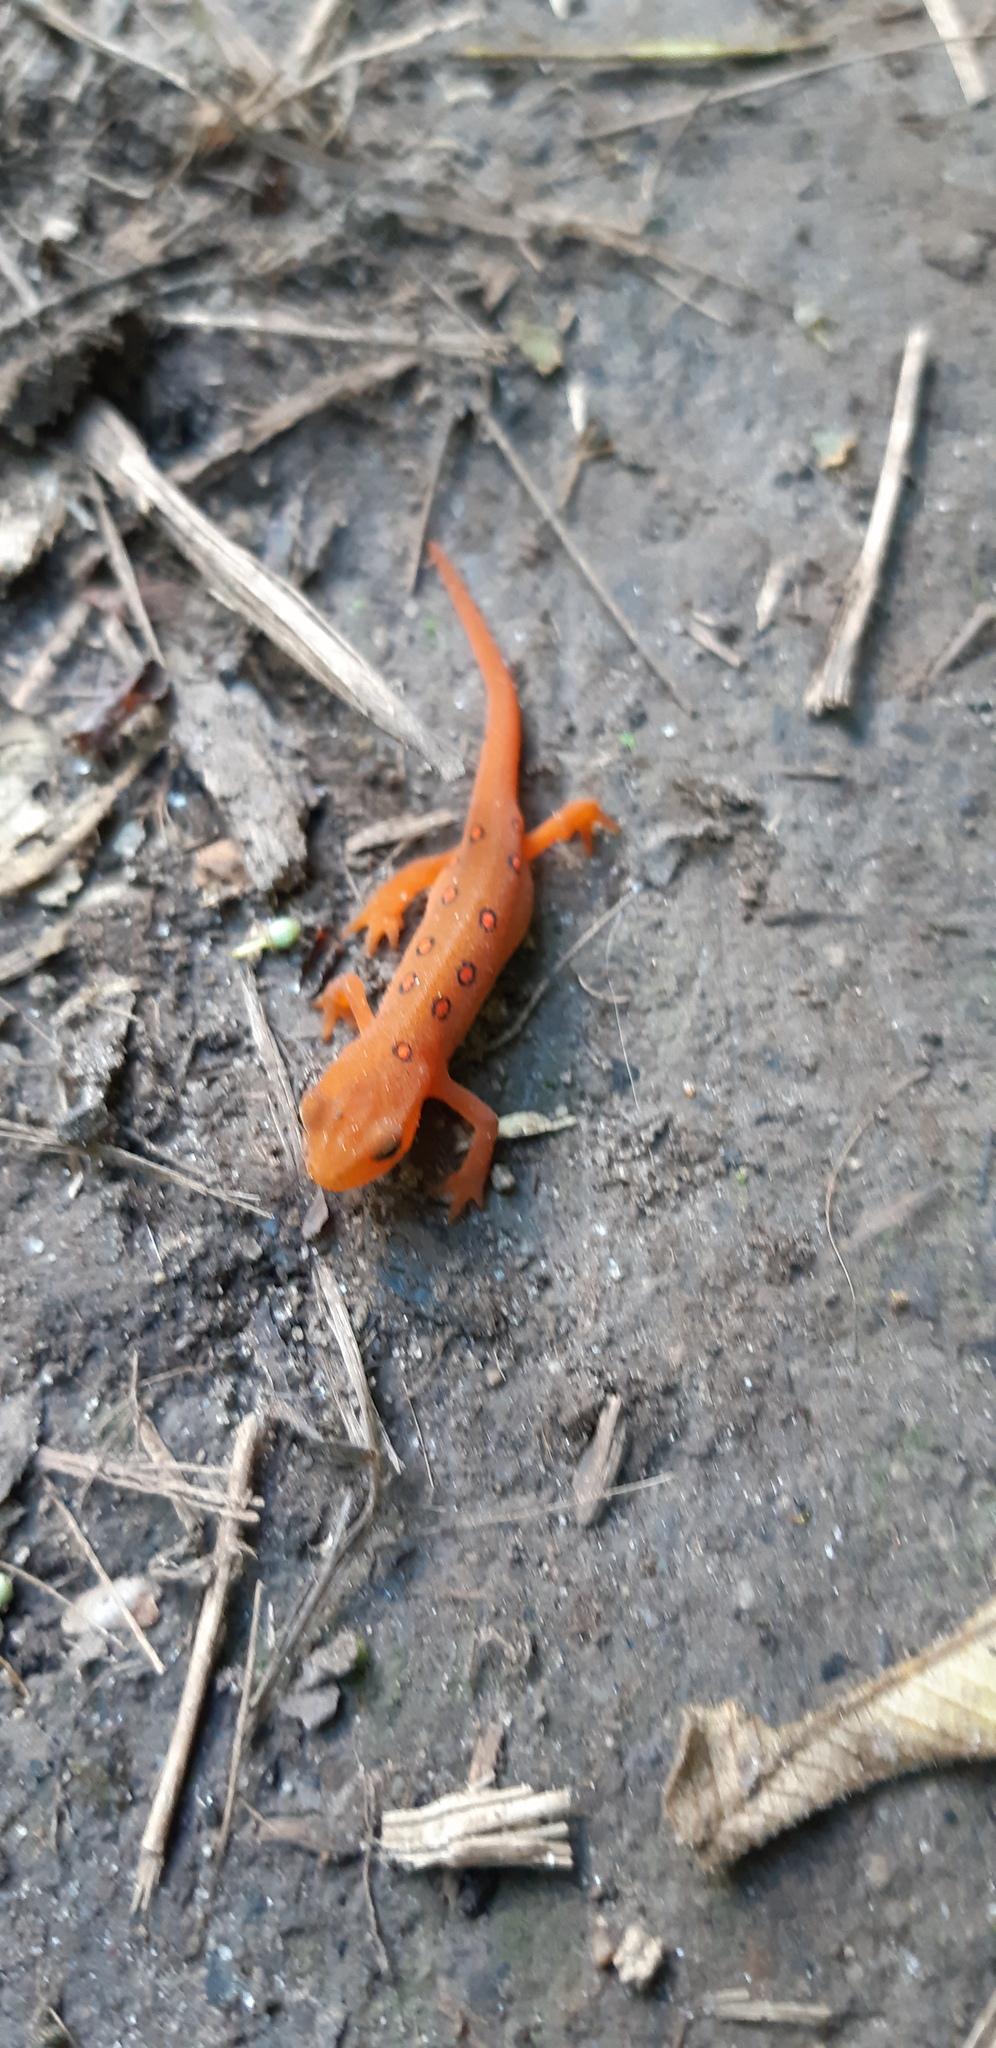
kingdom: Animalia
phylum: Chordata
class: Amphibia
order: Caudata
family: Salamandridae
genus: Notophthalmus
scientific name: Notophthalmus viridescens
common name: Eastern newt
